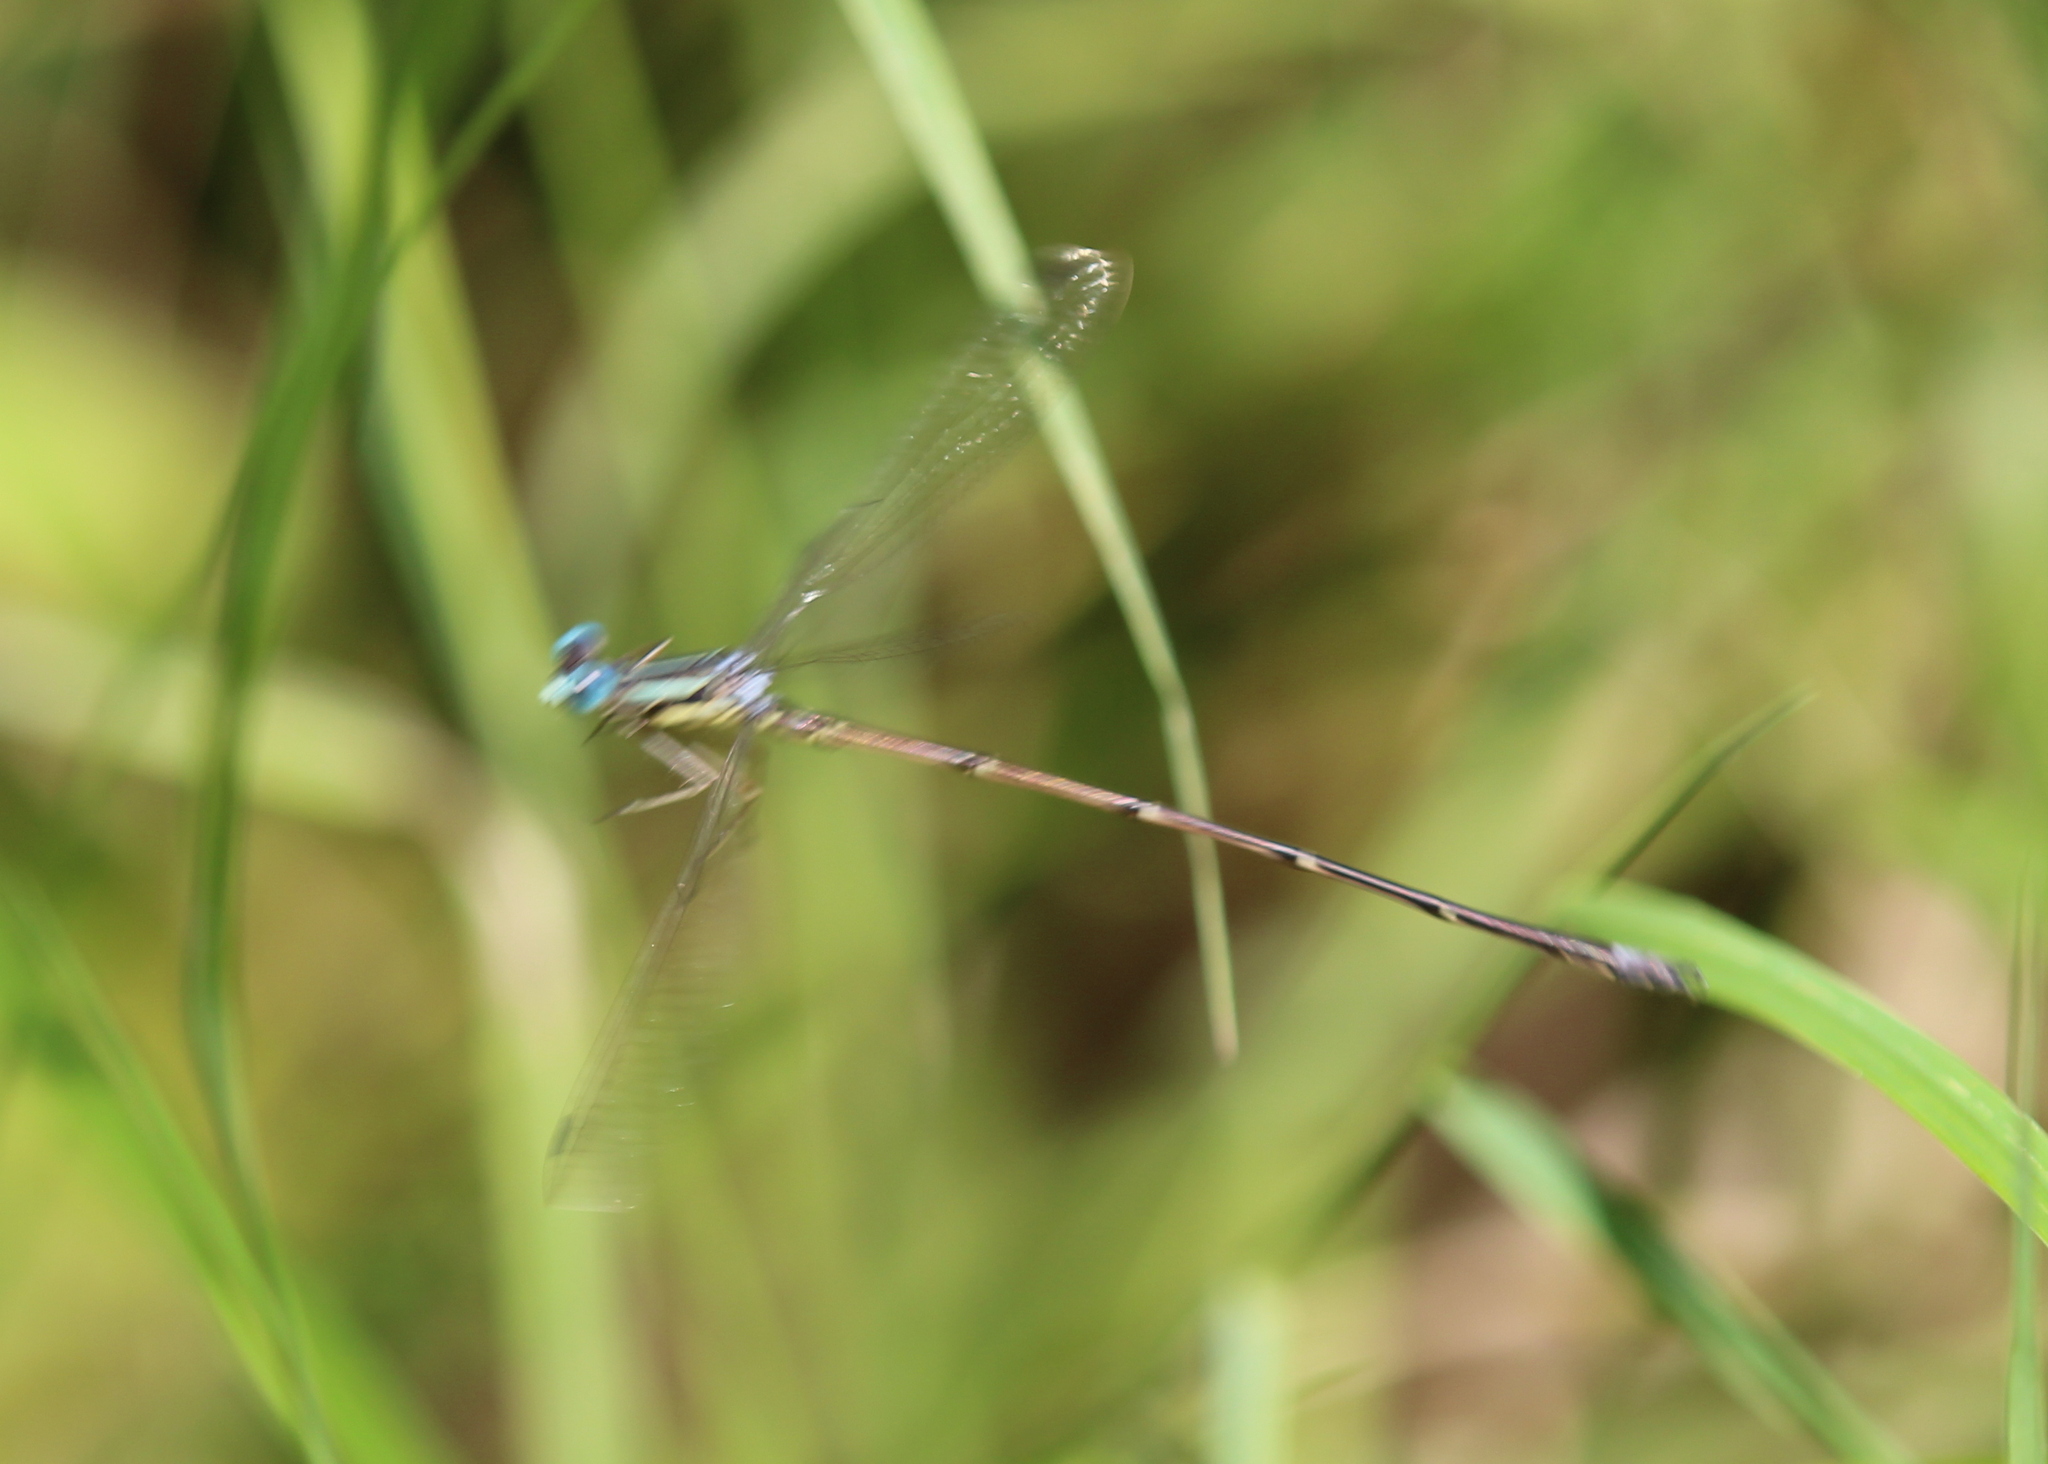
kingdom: Animalia
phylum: Arthropoda
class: Insecta
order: Odonata
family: Lestidae
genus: Lestes
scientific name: Lestes rectangularis
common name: Slender spreadwing
